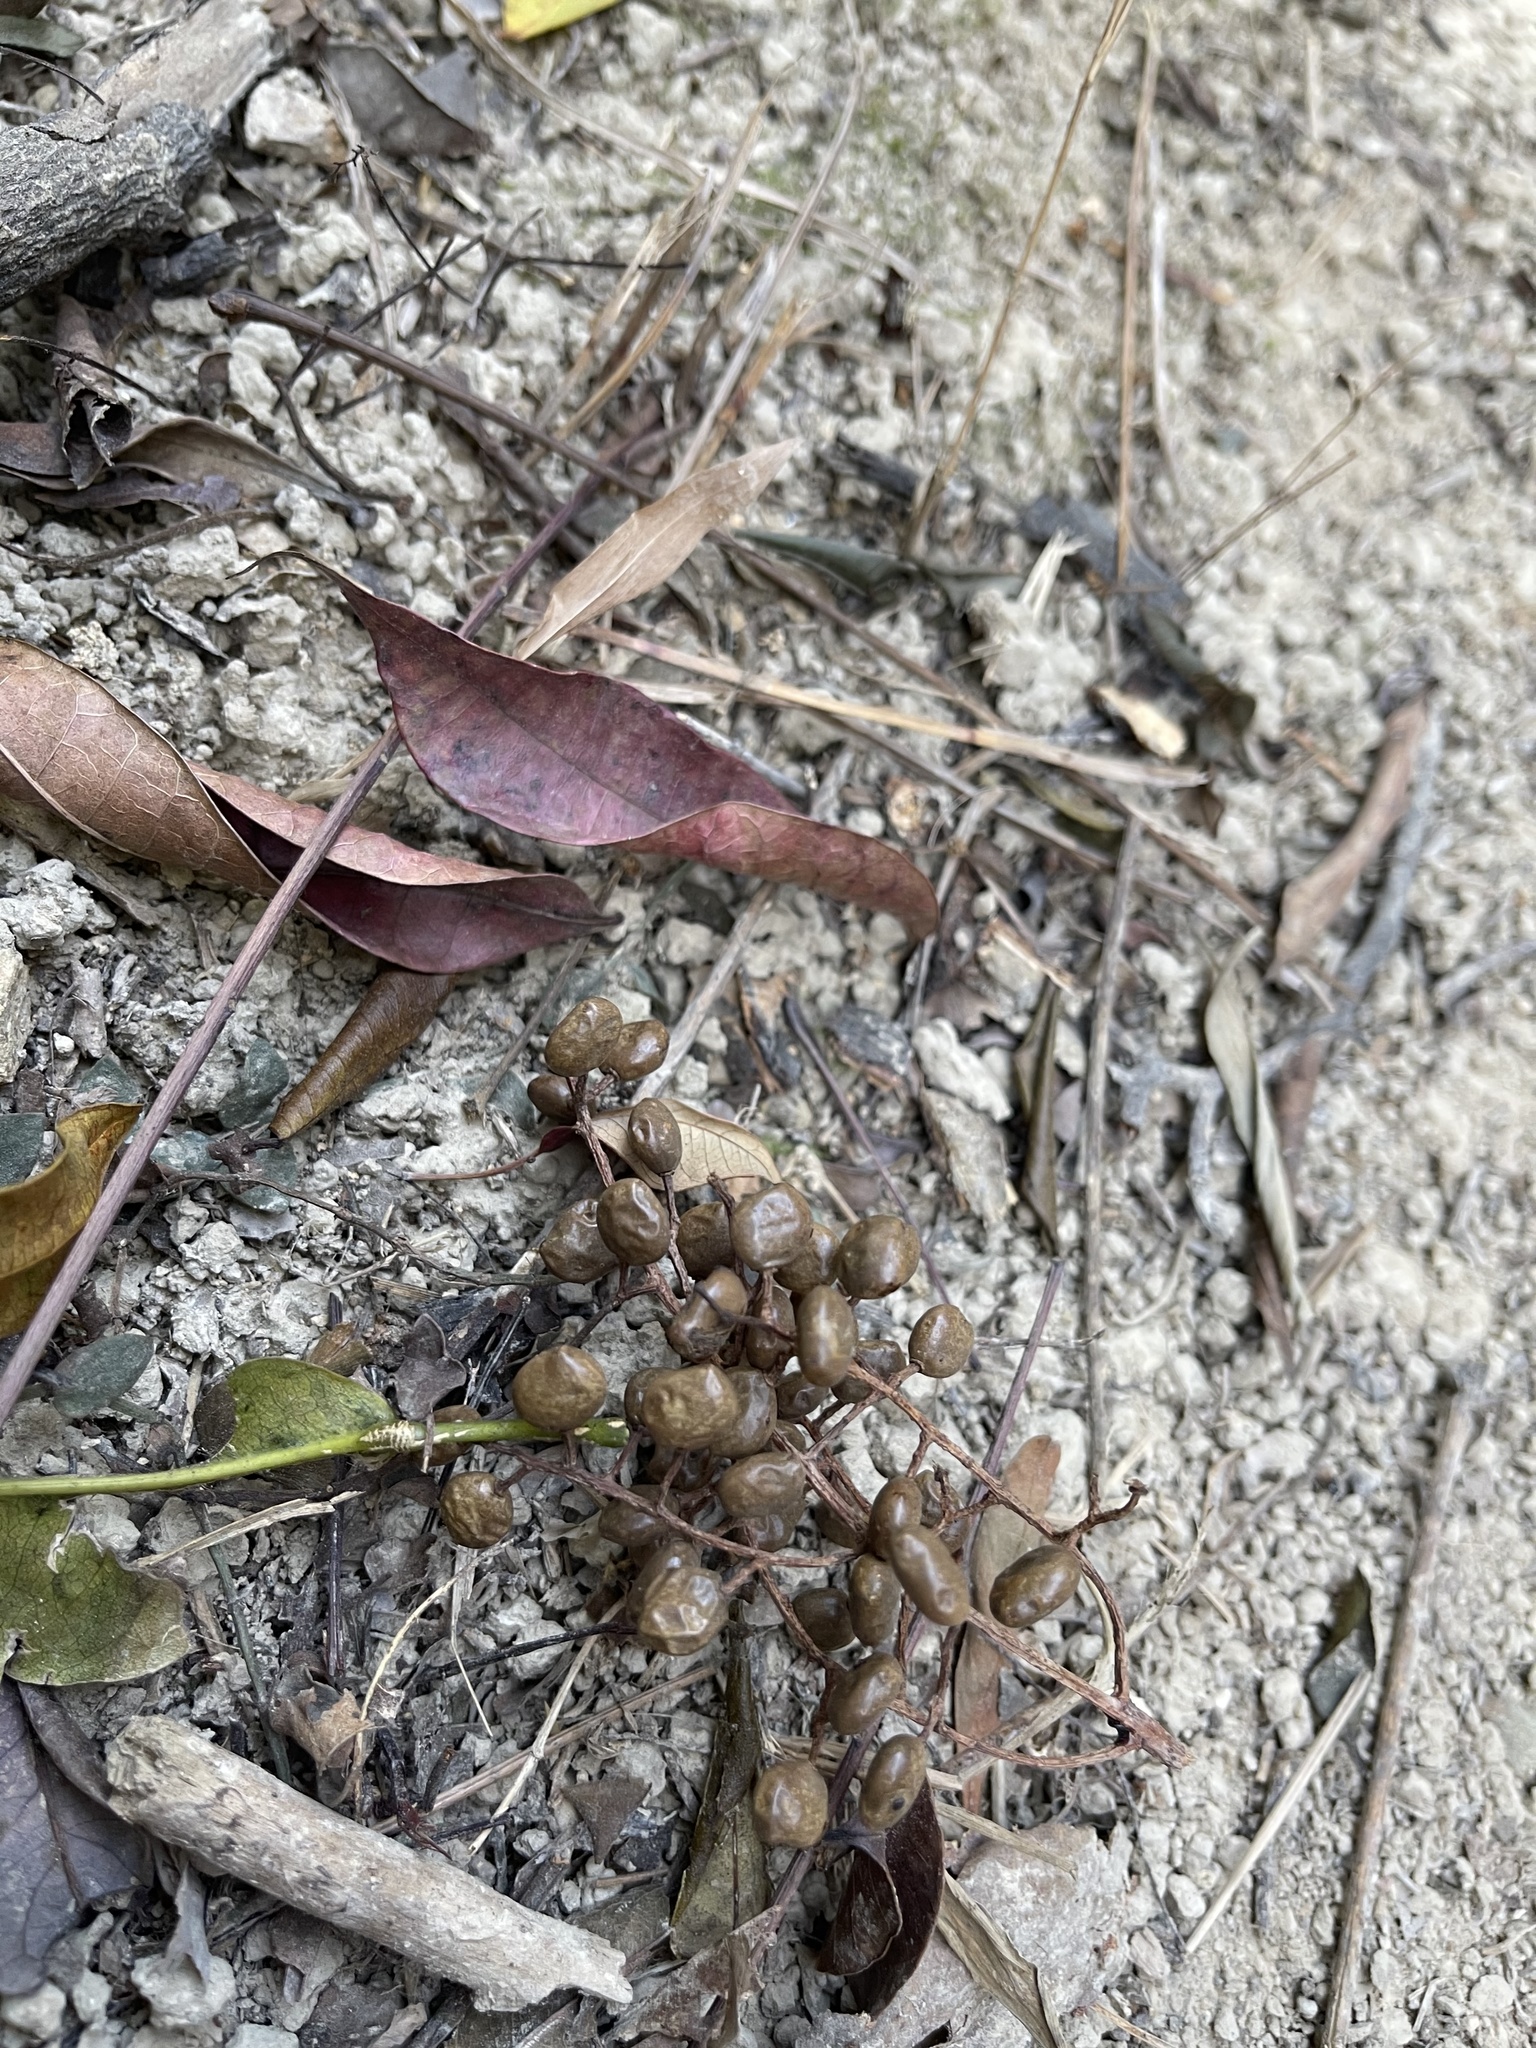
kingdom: Plantae
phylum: Tracheophyta
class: Magnoliopsida
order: Sapindales
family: Anacardiaceae
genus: Toxicodendron
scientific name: Toxicodendron succedaneum
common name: Wax tree
